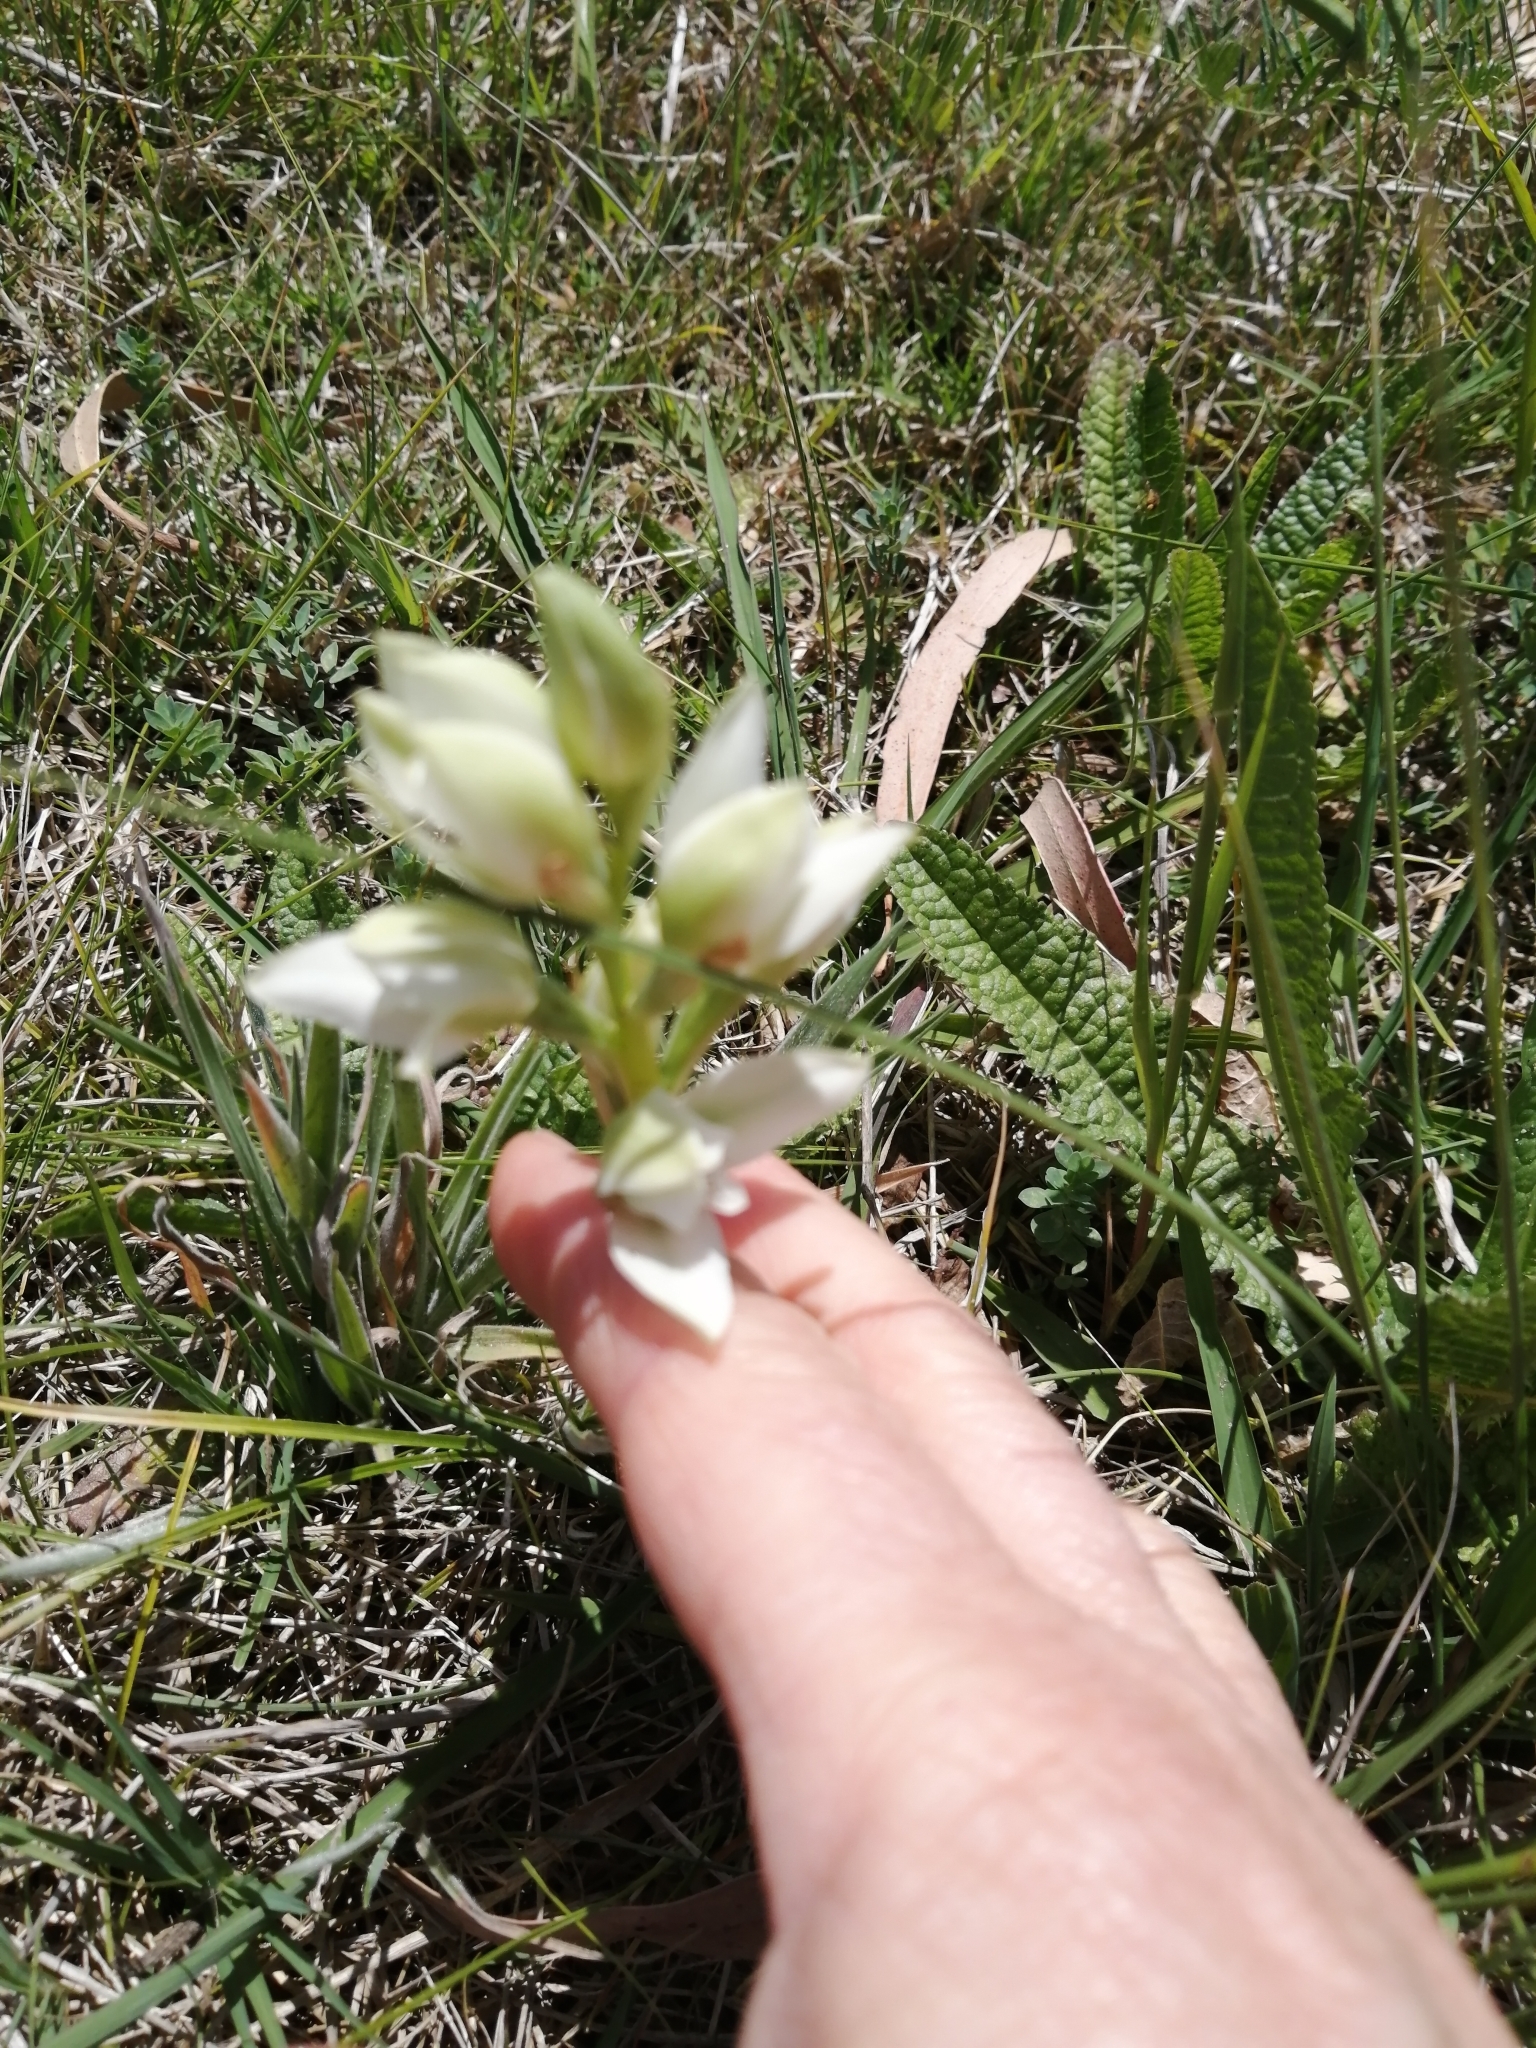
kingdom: Plantae
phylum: Tracheophyta
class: Liliopsida
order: Asparagales
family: Orchidaceae
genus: Chloraea
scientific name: Chloraea membranacea
